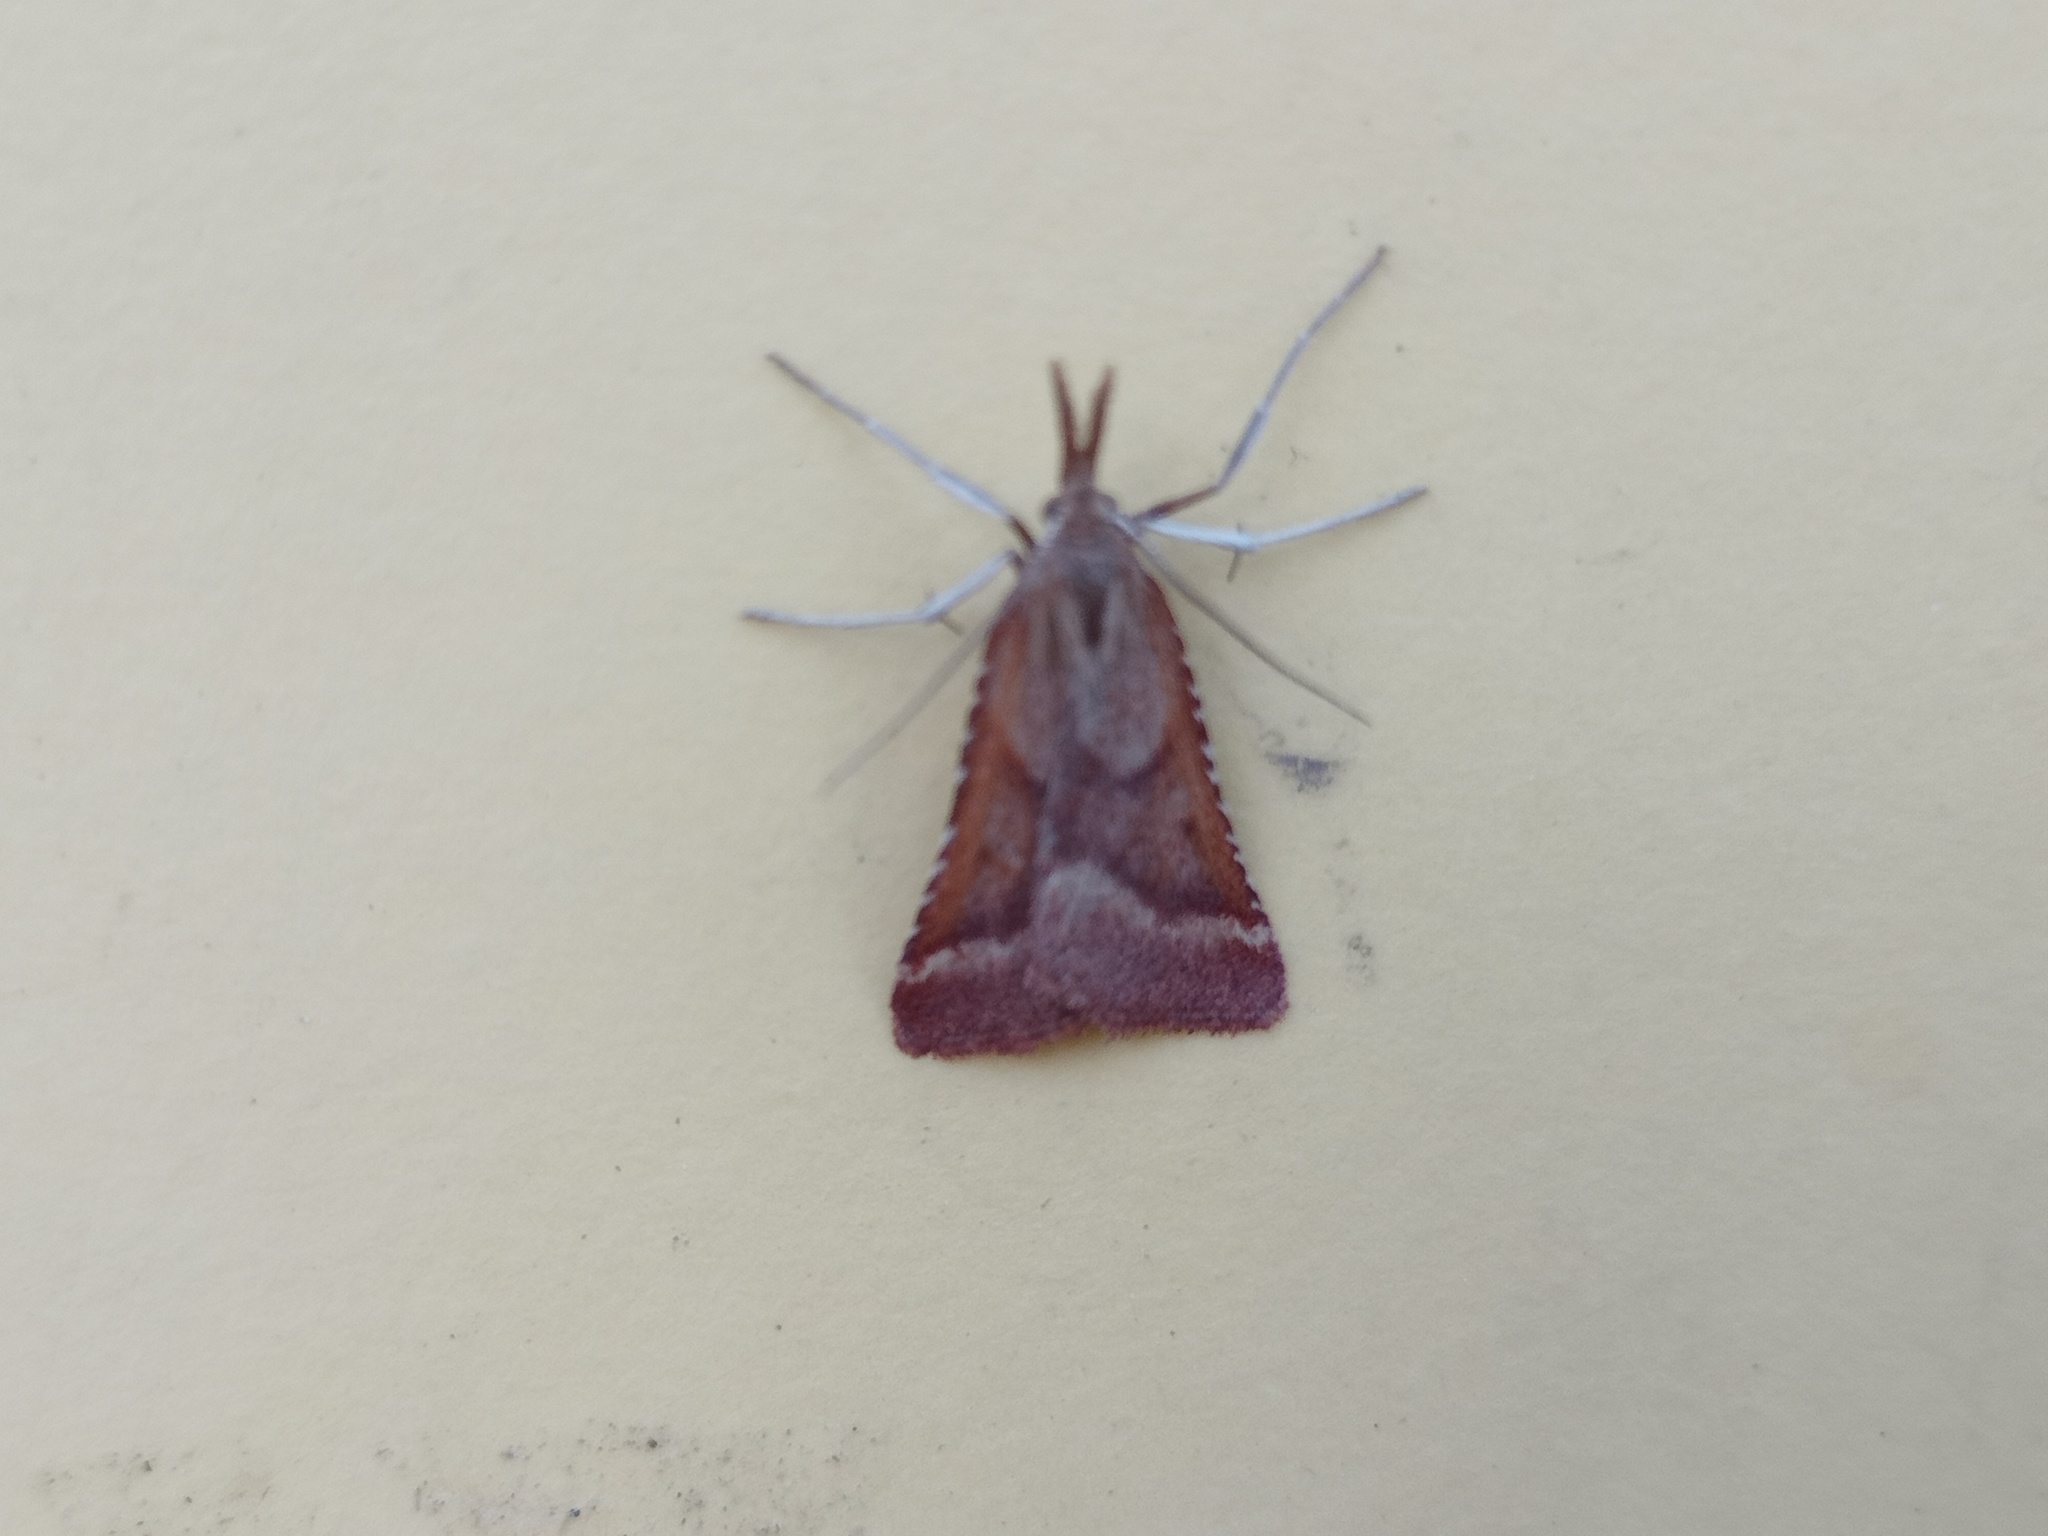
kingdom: Animalia
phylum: Arthropoda
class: Insecta
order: Lepidoptera
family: Pyralidae
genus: Synaphe
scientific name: Synaphe punctalis
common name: Long-legged tabby
